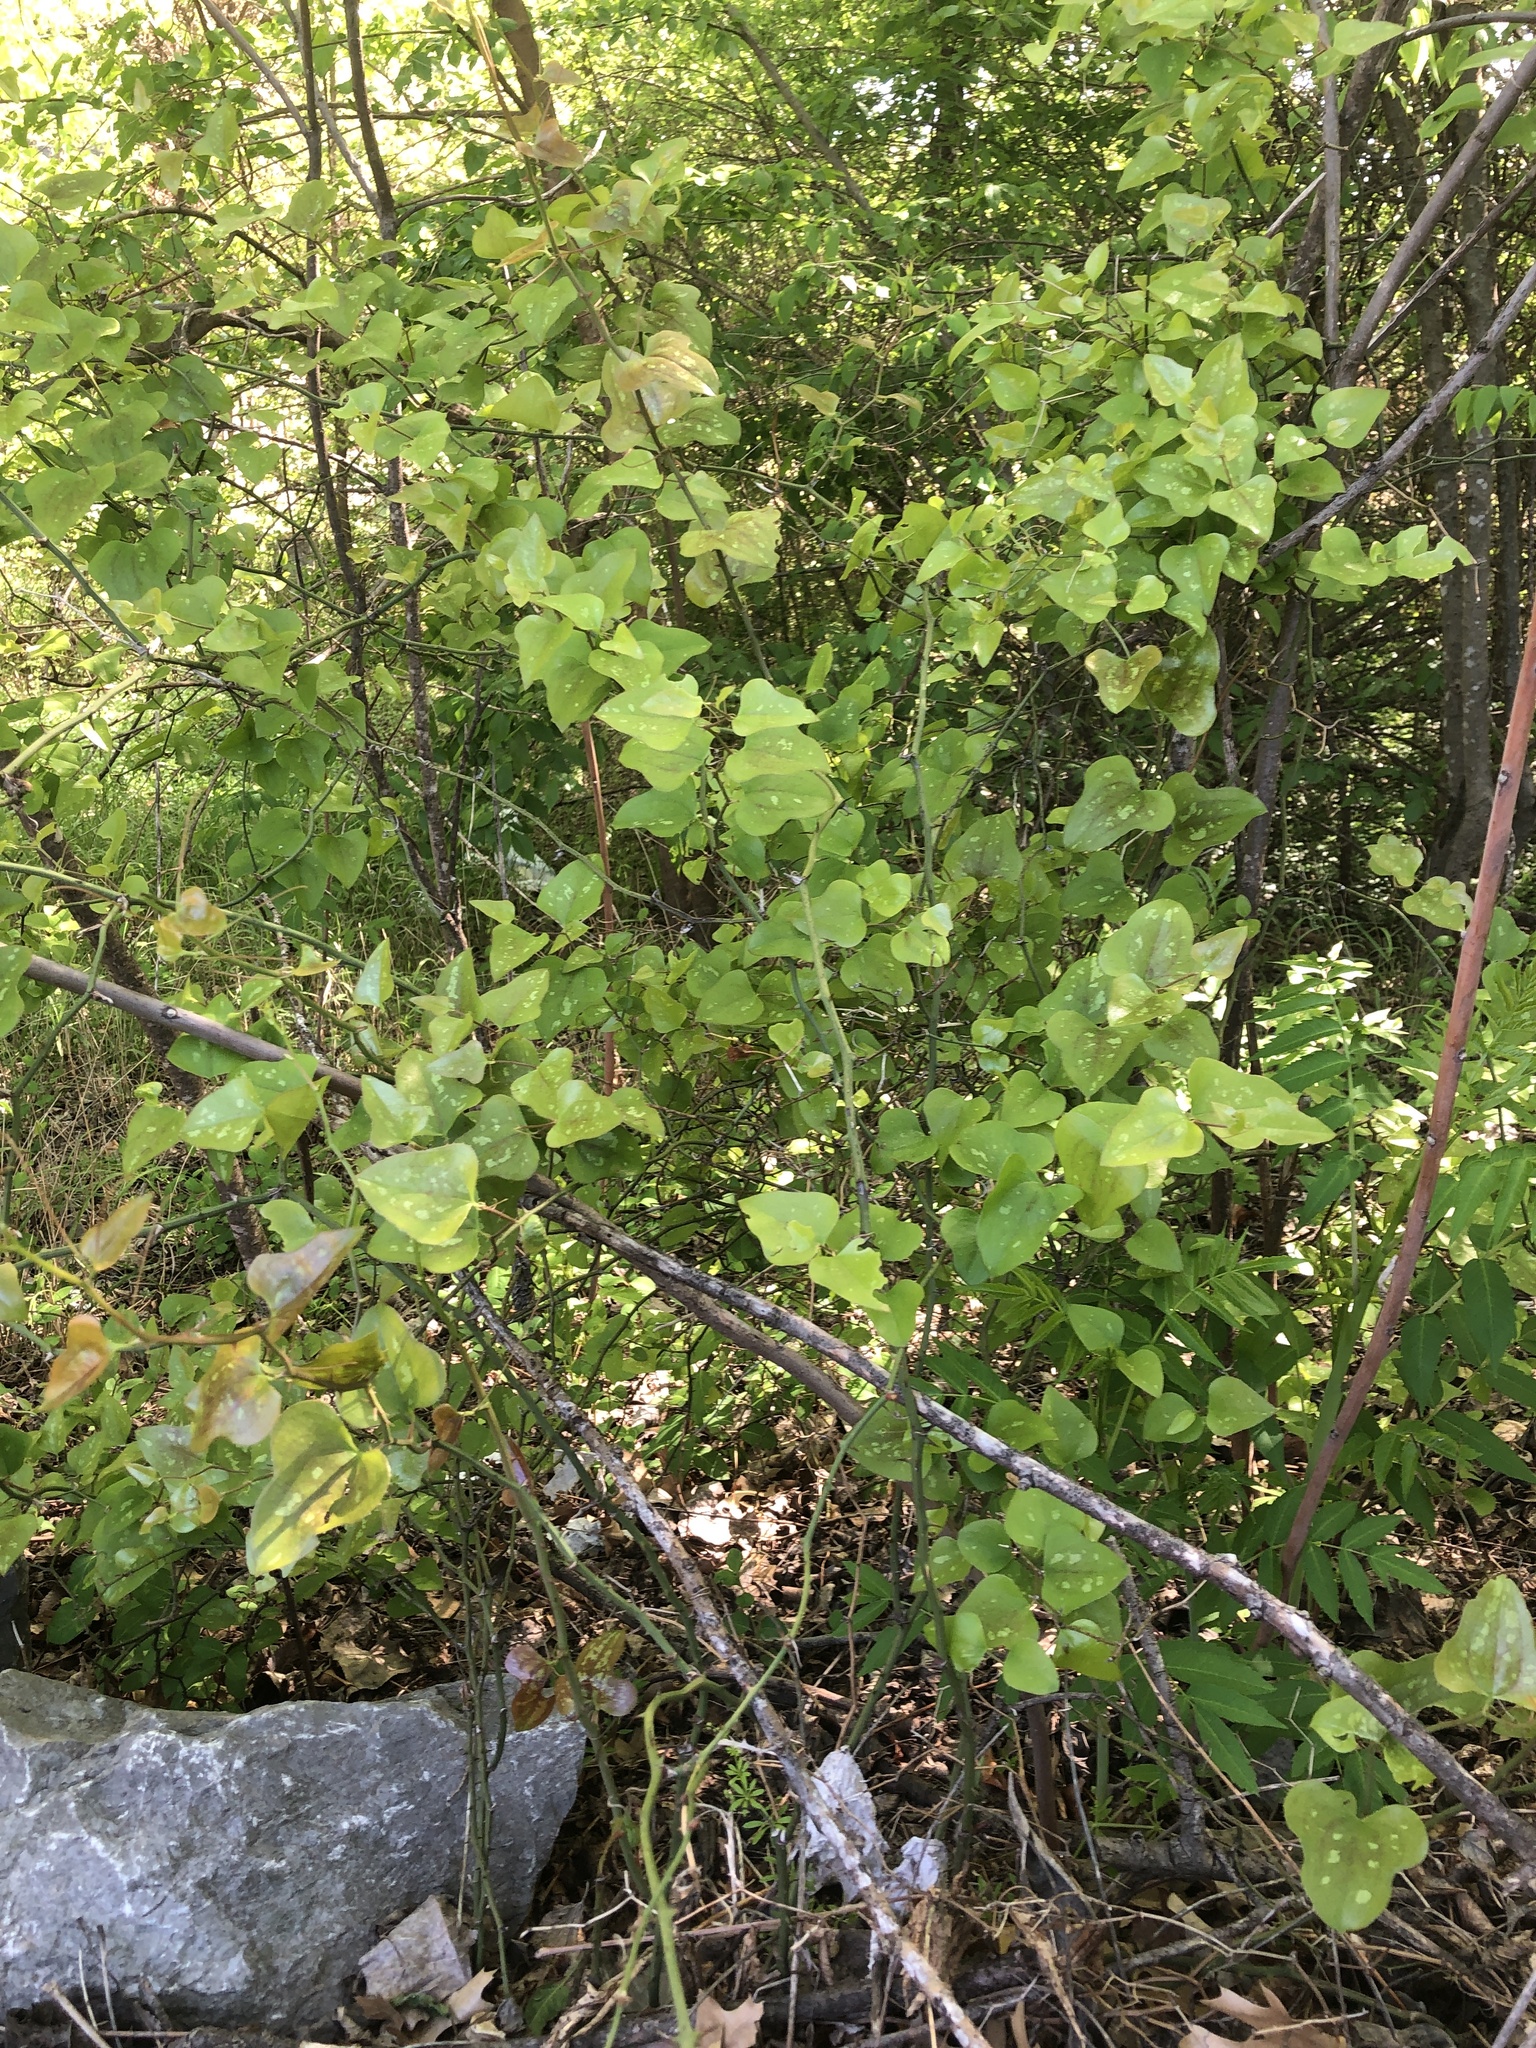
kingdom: Plantae
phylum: Tracheophyta
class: Liliopsida
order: Liliales
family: Smilacaceae
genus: Smilax
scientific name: Smilax bona-nox
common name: Catbrier
